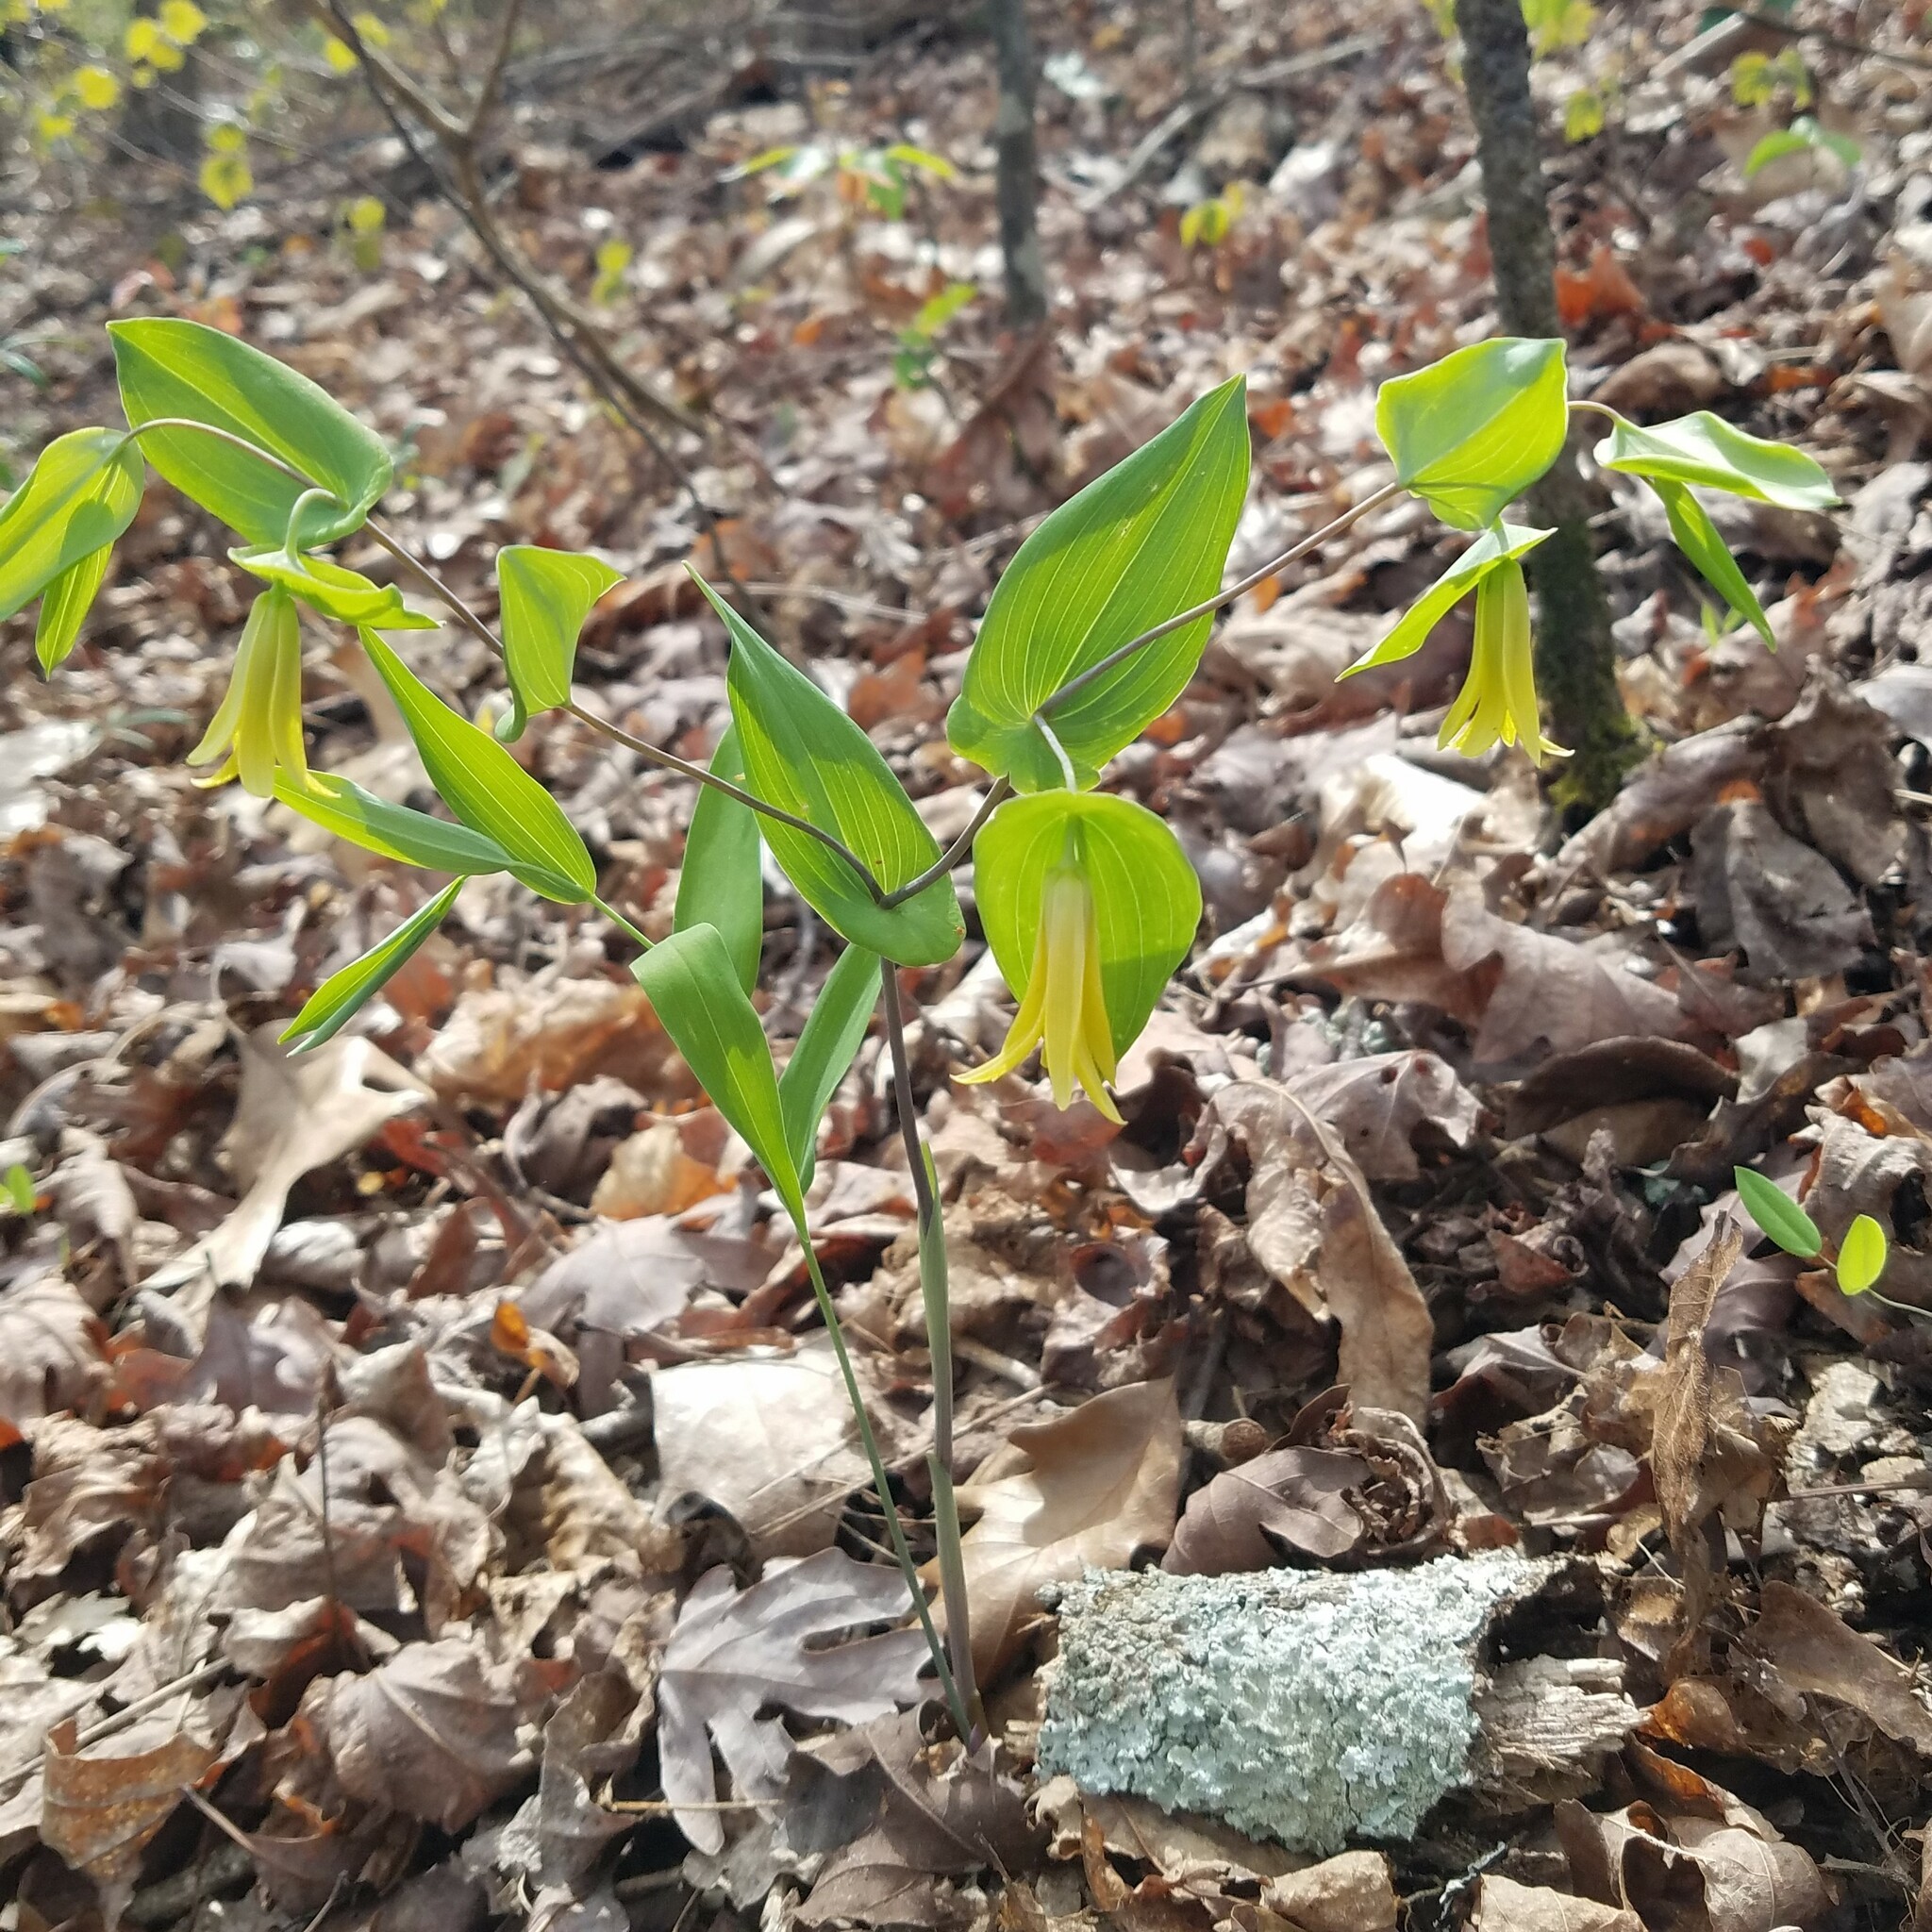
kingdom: Plantae
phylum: Tracheophyta
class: Liliopsida
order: Liliales
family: Colchicaceae
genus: Uvularia
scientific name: Uvularia perfoliata
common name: Perfoliate bellwort
